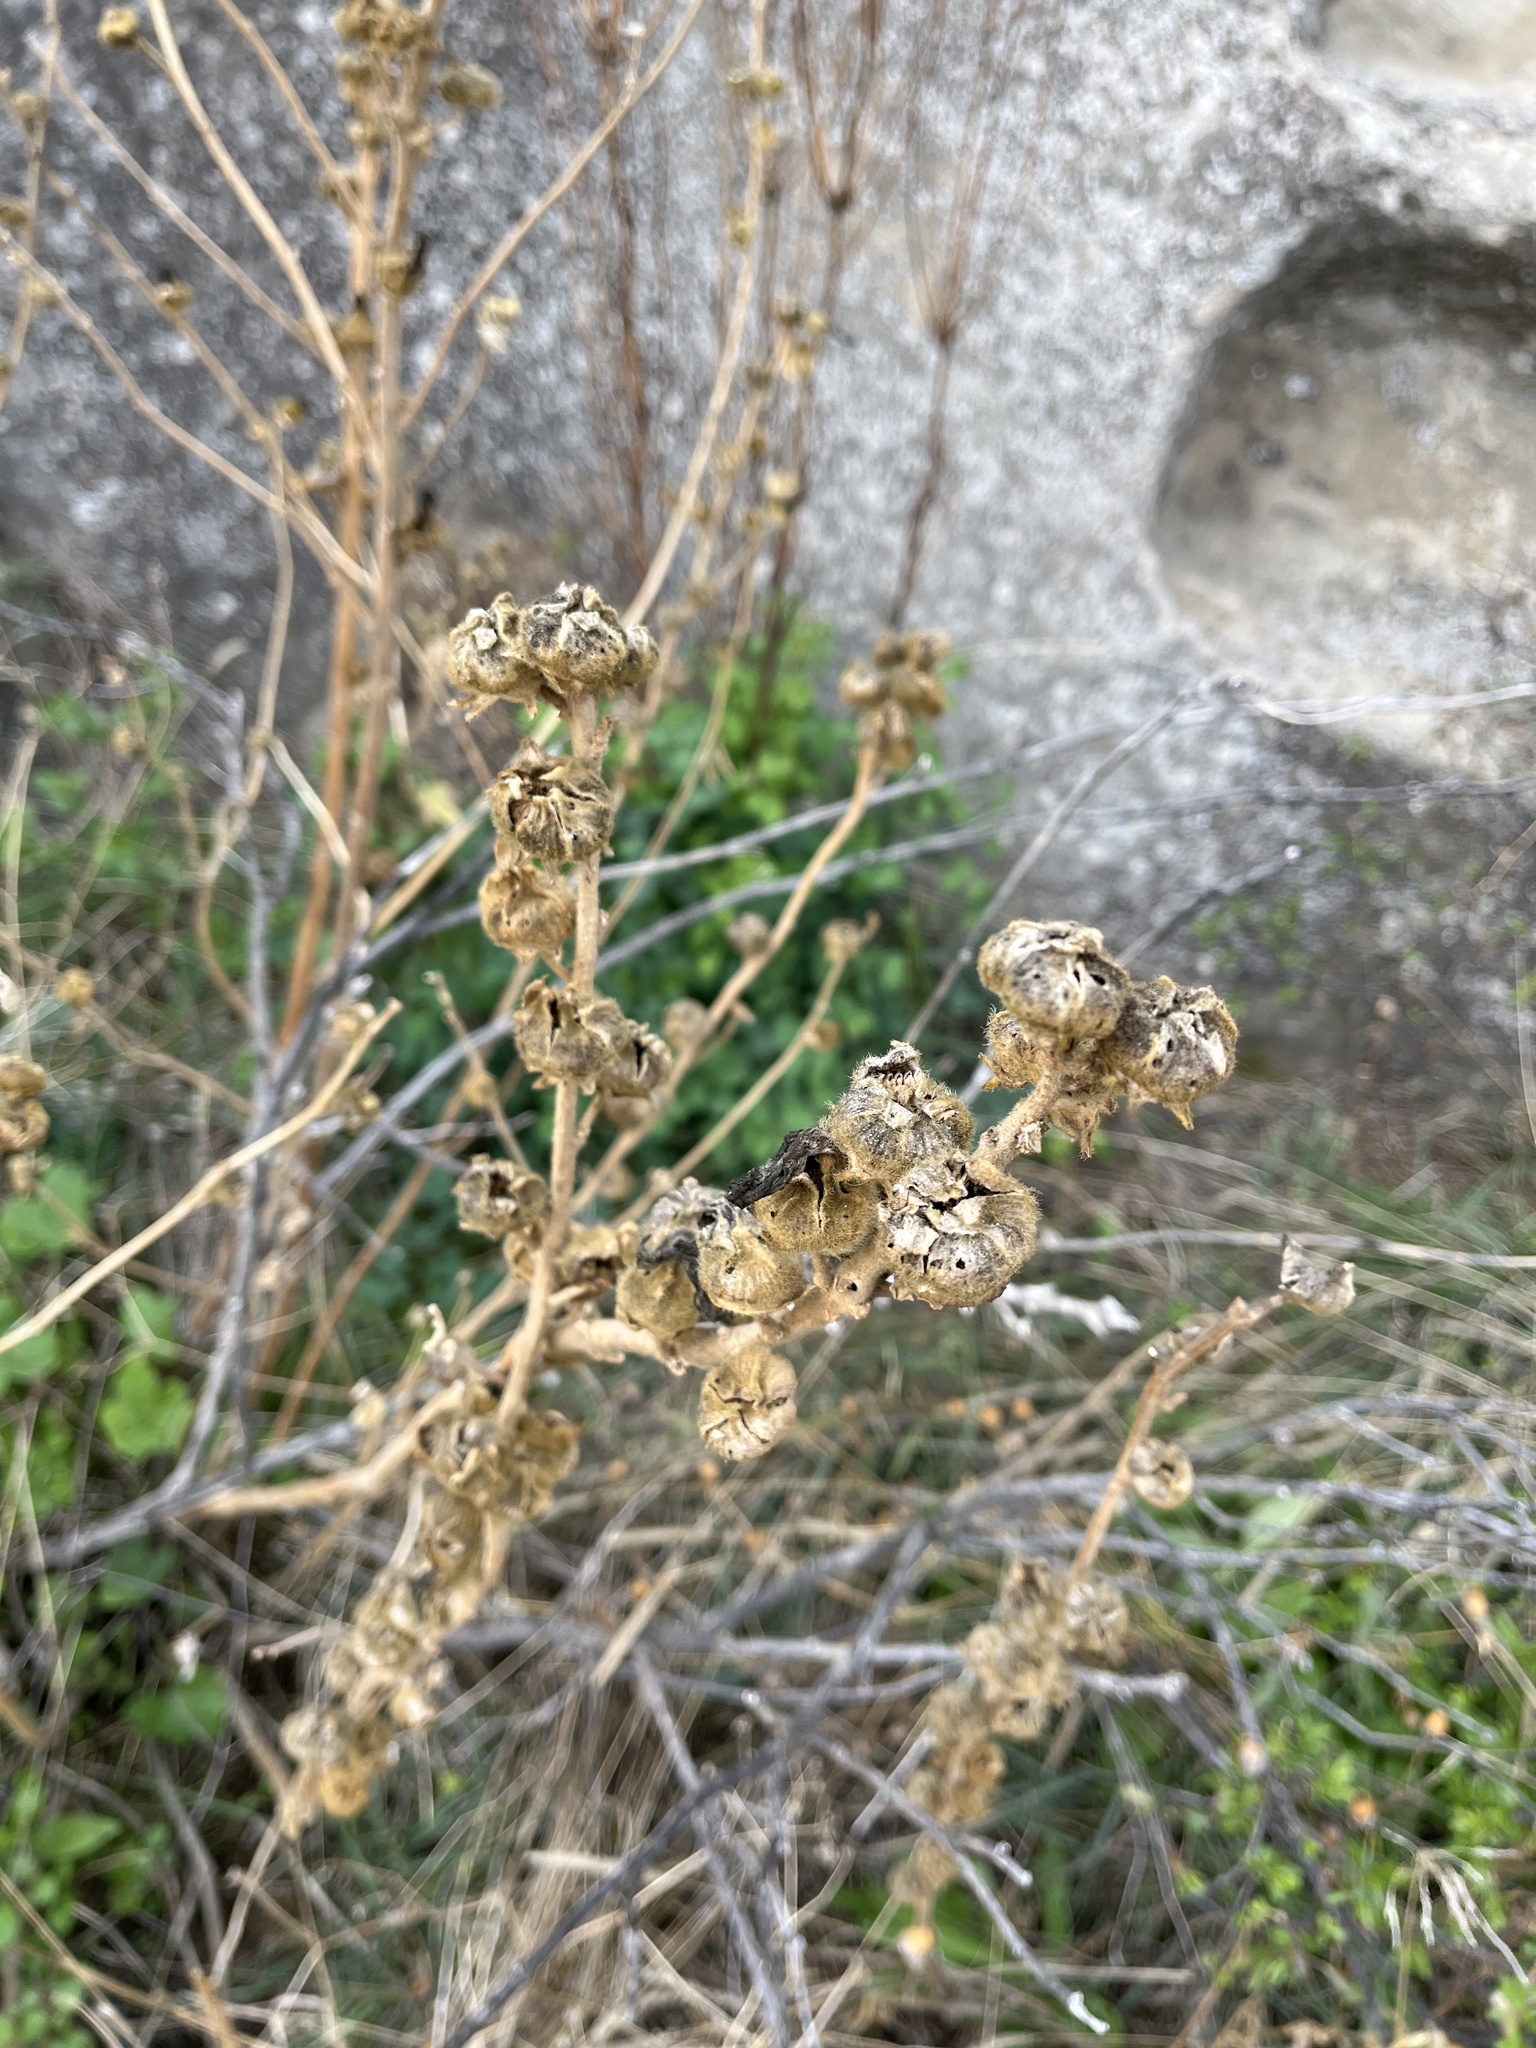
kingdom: Plantae
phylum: Tracheophyta
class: Magnoliopsida
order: Malvales
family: Malvaceae
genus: Alcea
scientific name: Alcea rugosa
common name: Russian hollyhock
